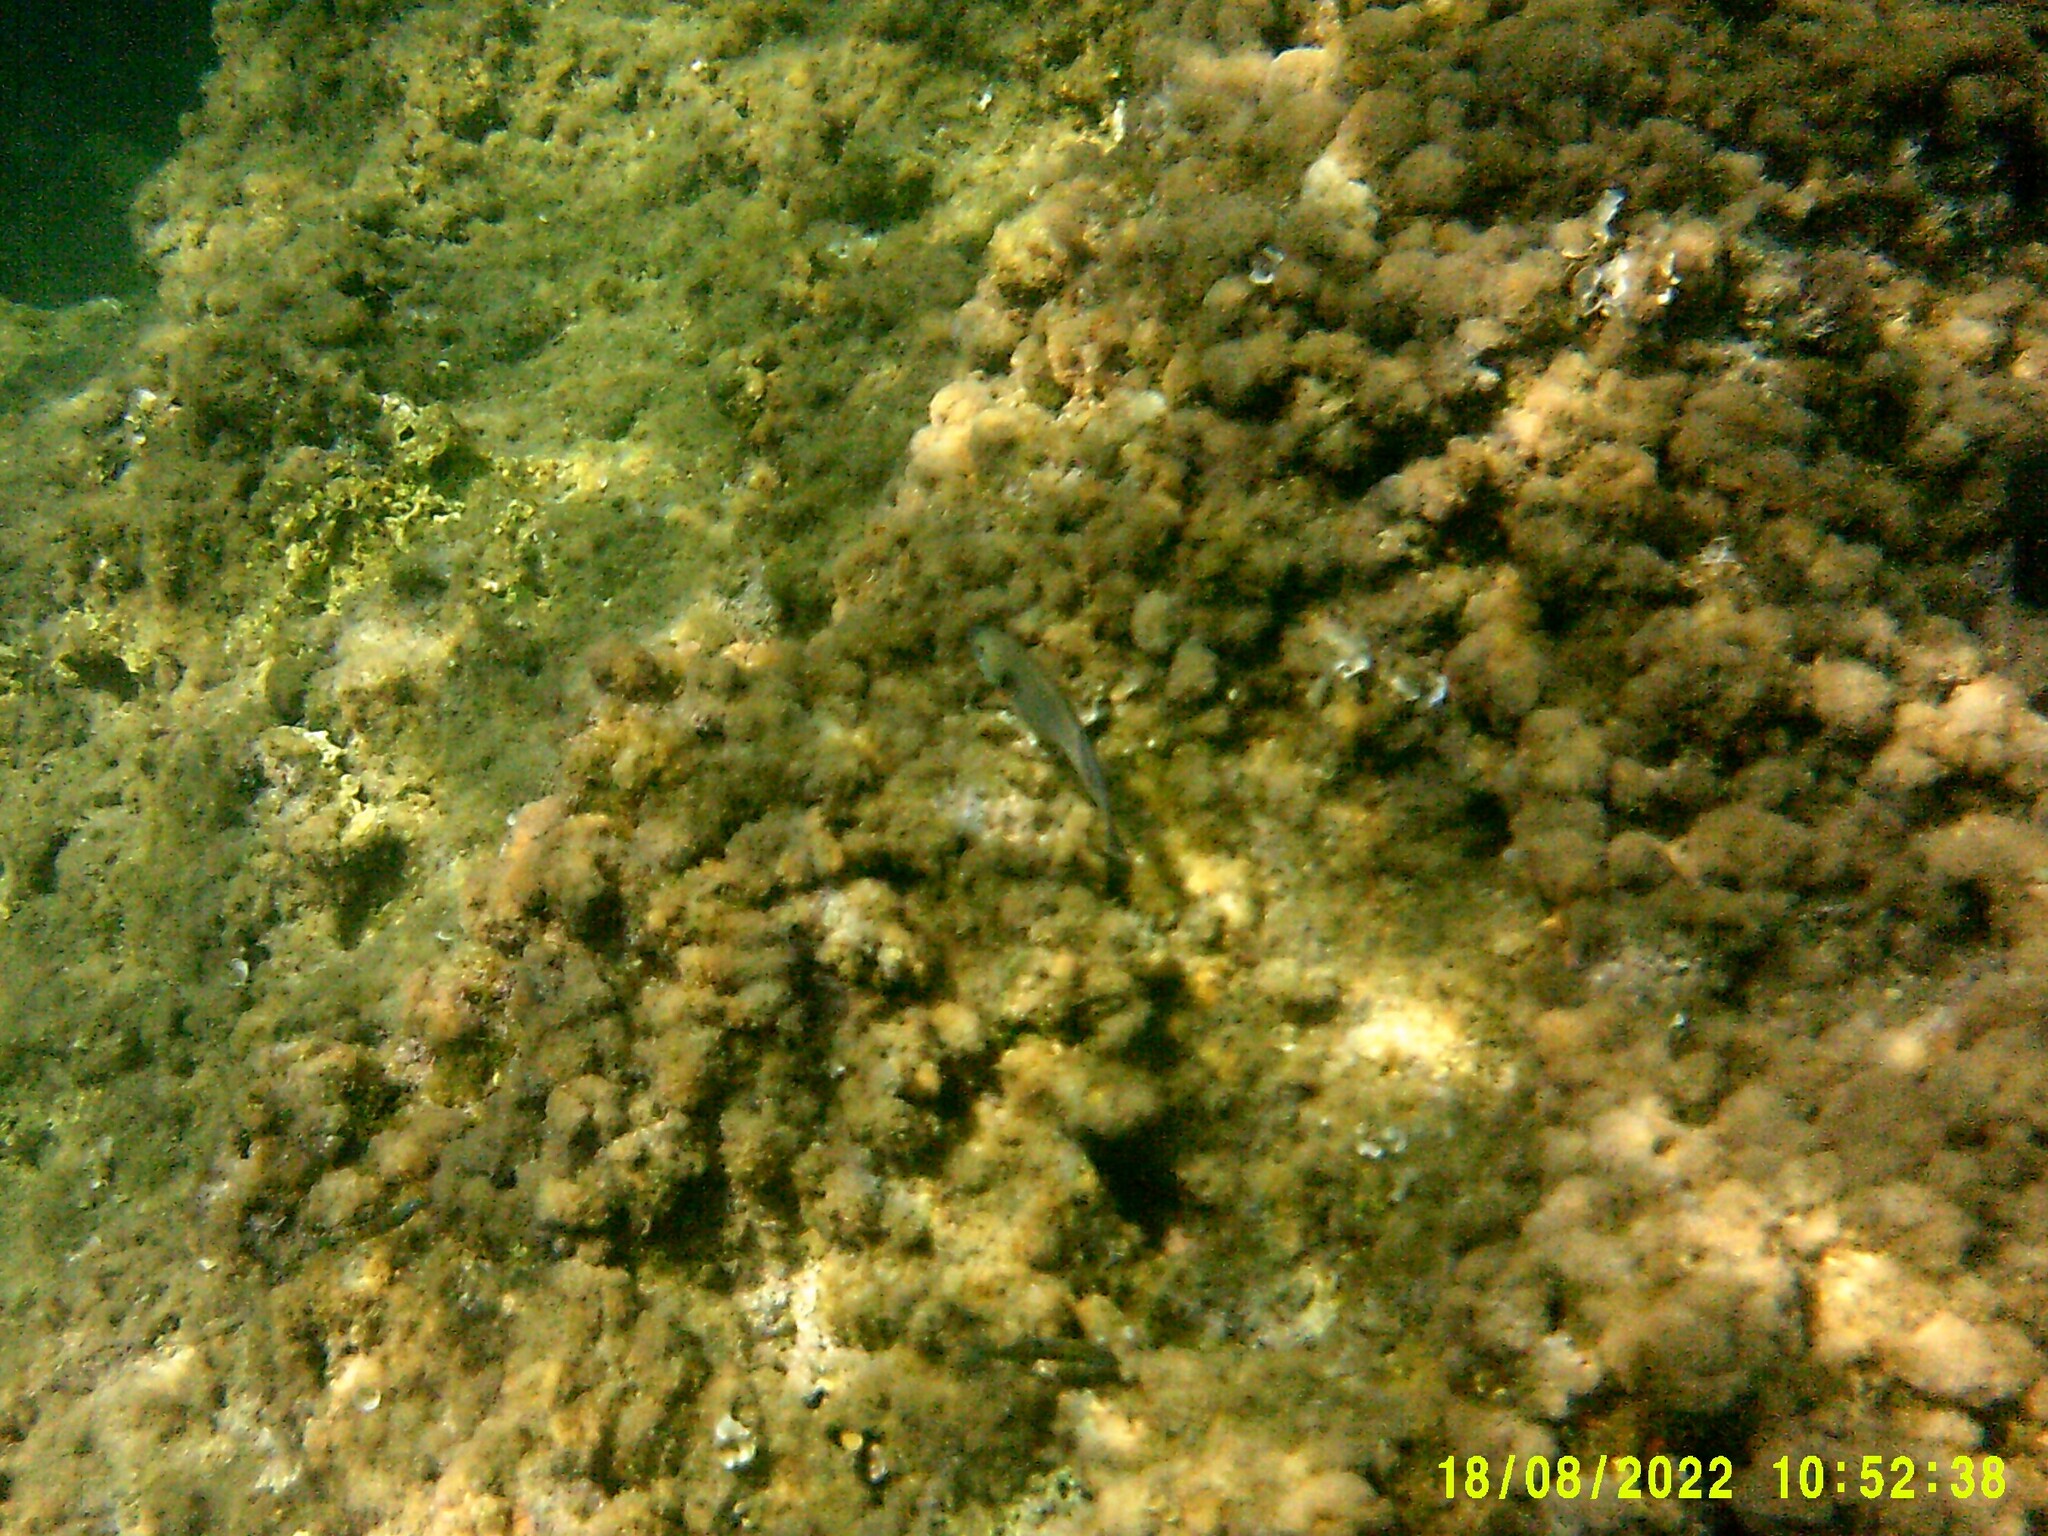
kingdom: Animalia
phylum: Chordata
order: Perciformes
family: Scaridae
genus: Sparisoma
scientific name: Sparisoma cretense
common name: Parrotfish
